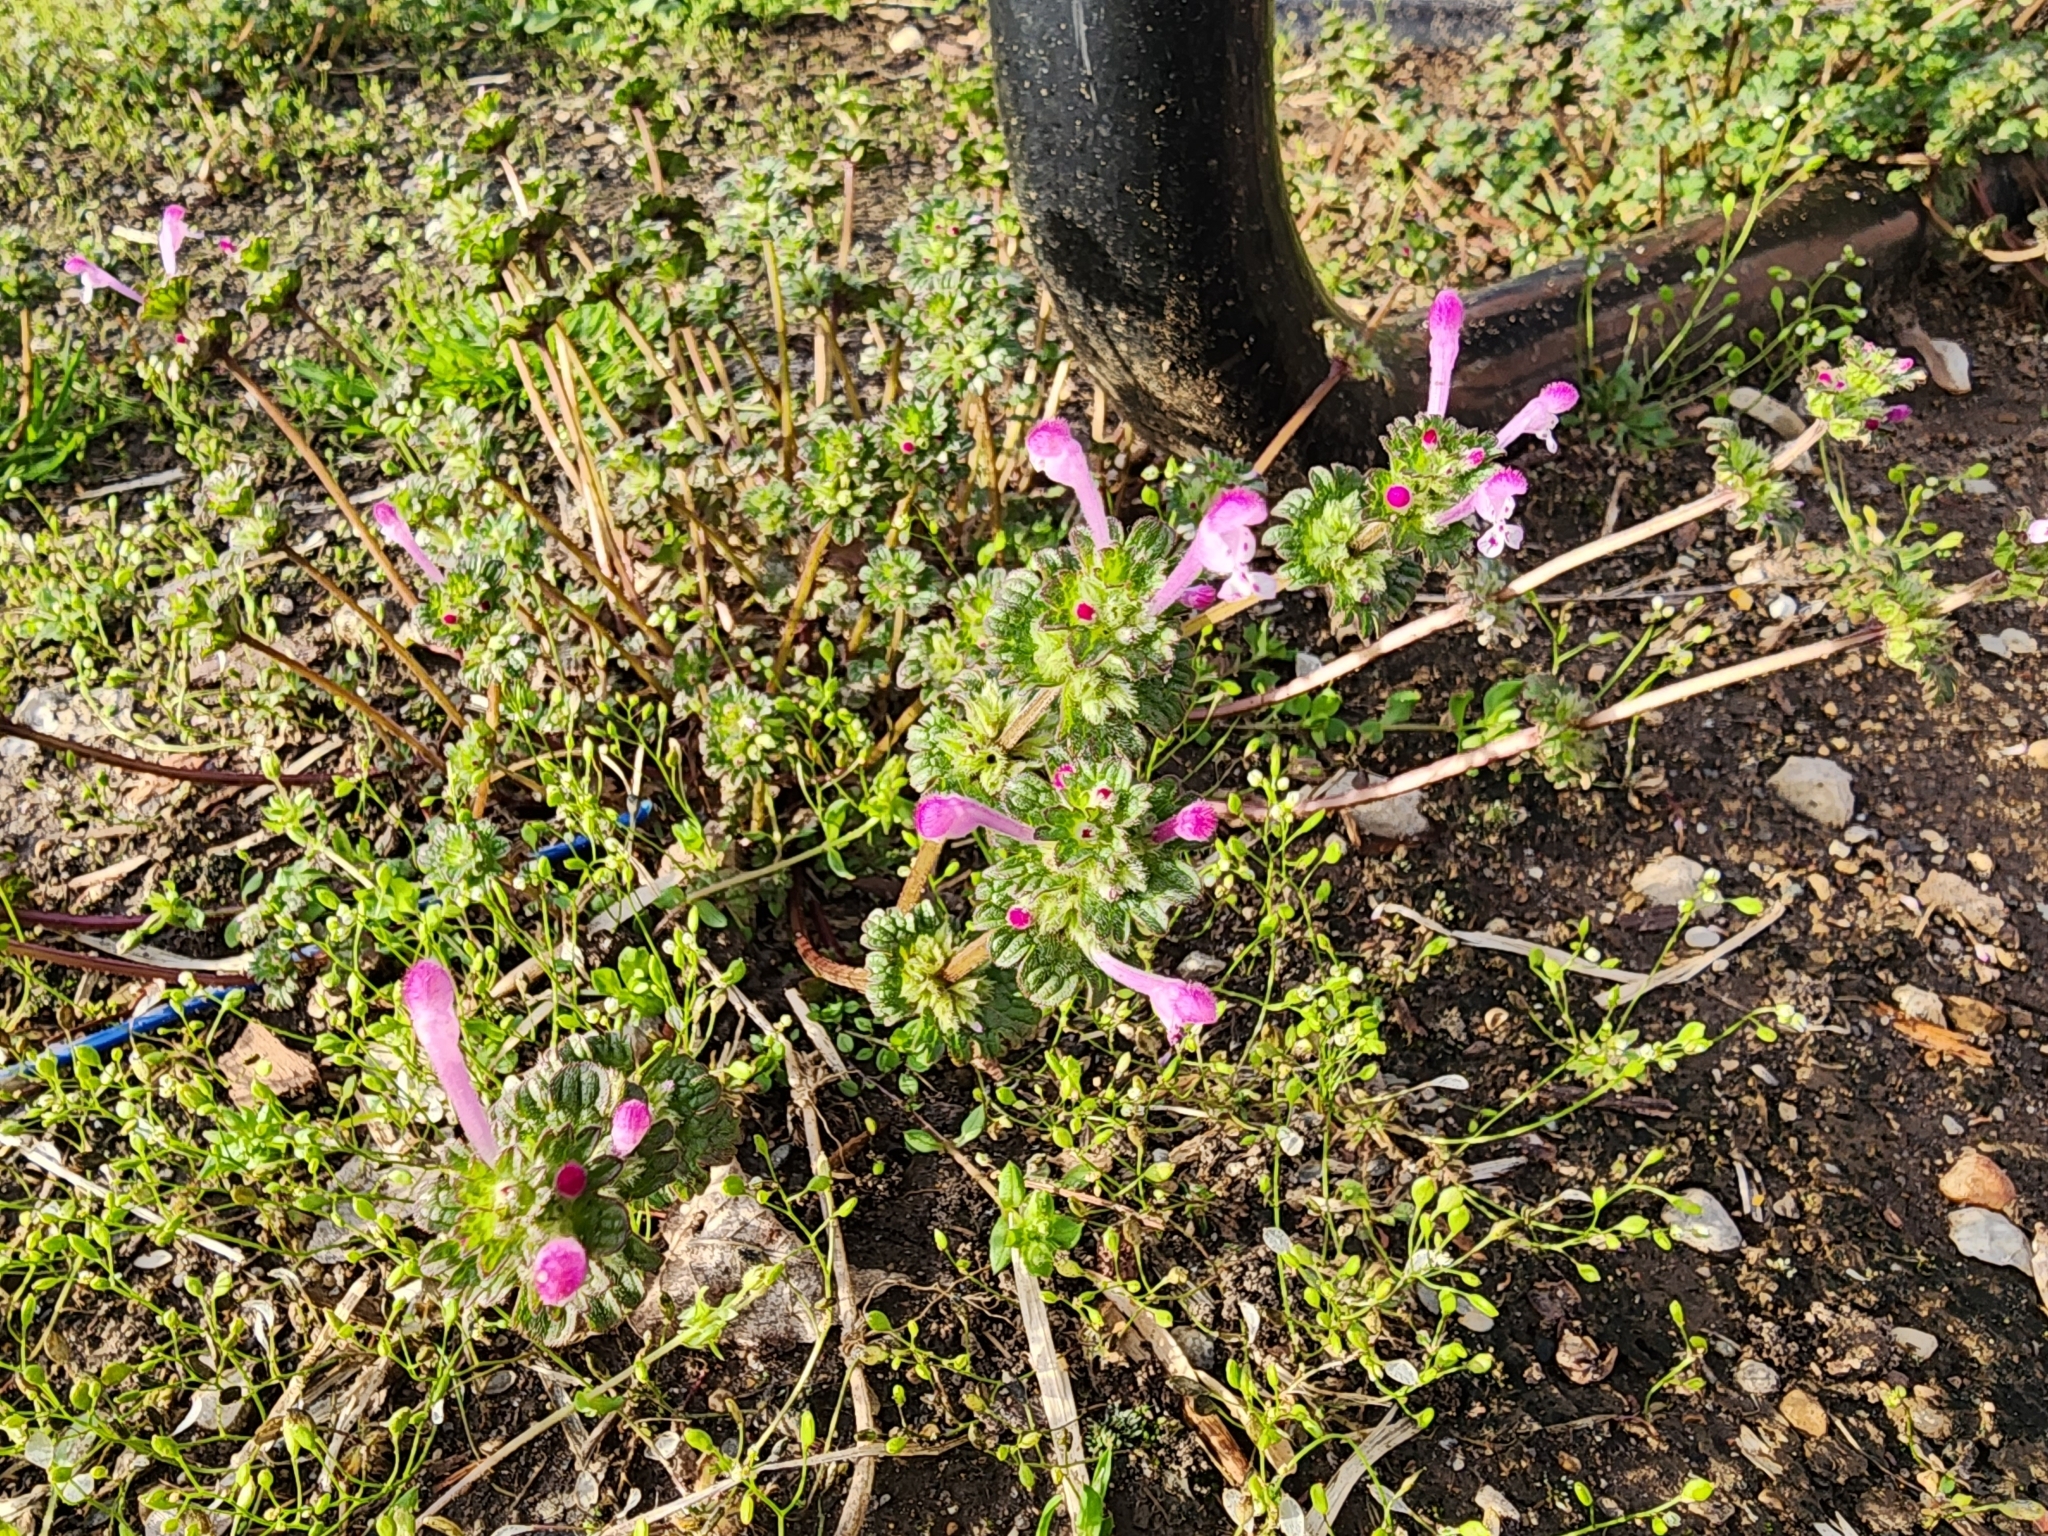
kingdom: Plantae
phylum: Tracheophyta
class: Magnoliopsida
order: Lamiales
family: Lamiaceae
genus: Lamium
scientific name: Lamium amplexicaule
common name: Henbit dead-nettle
